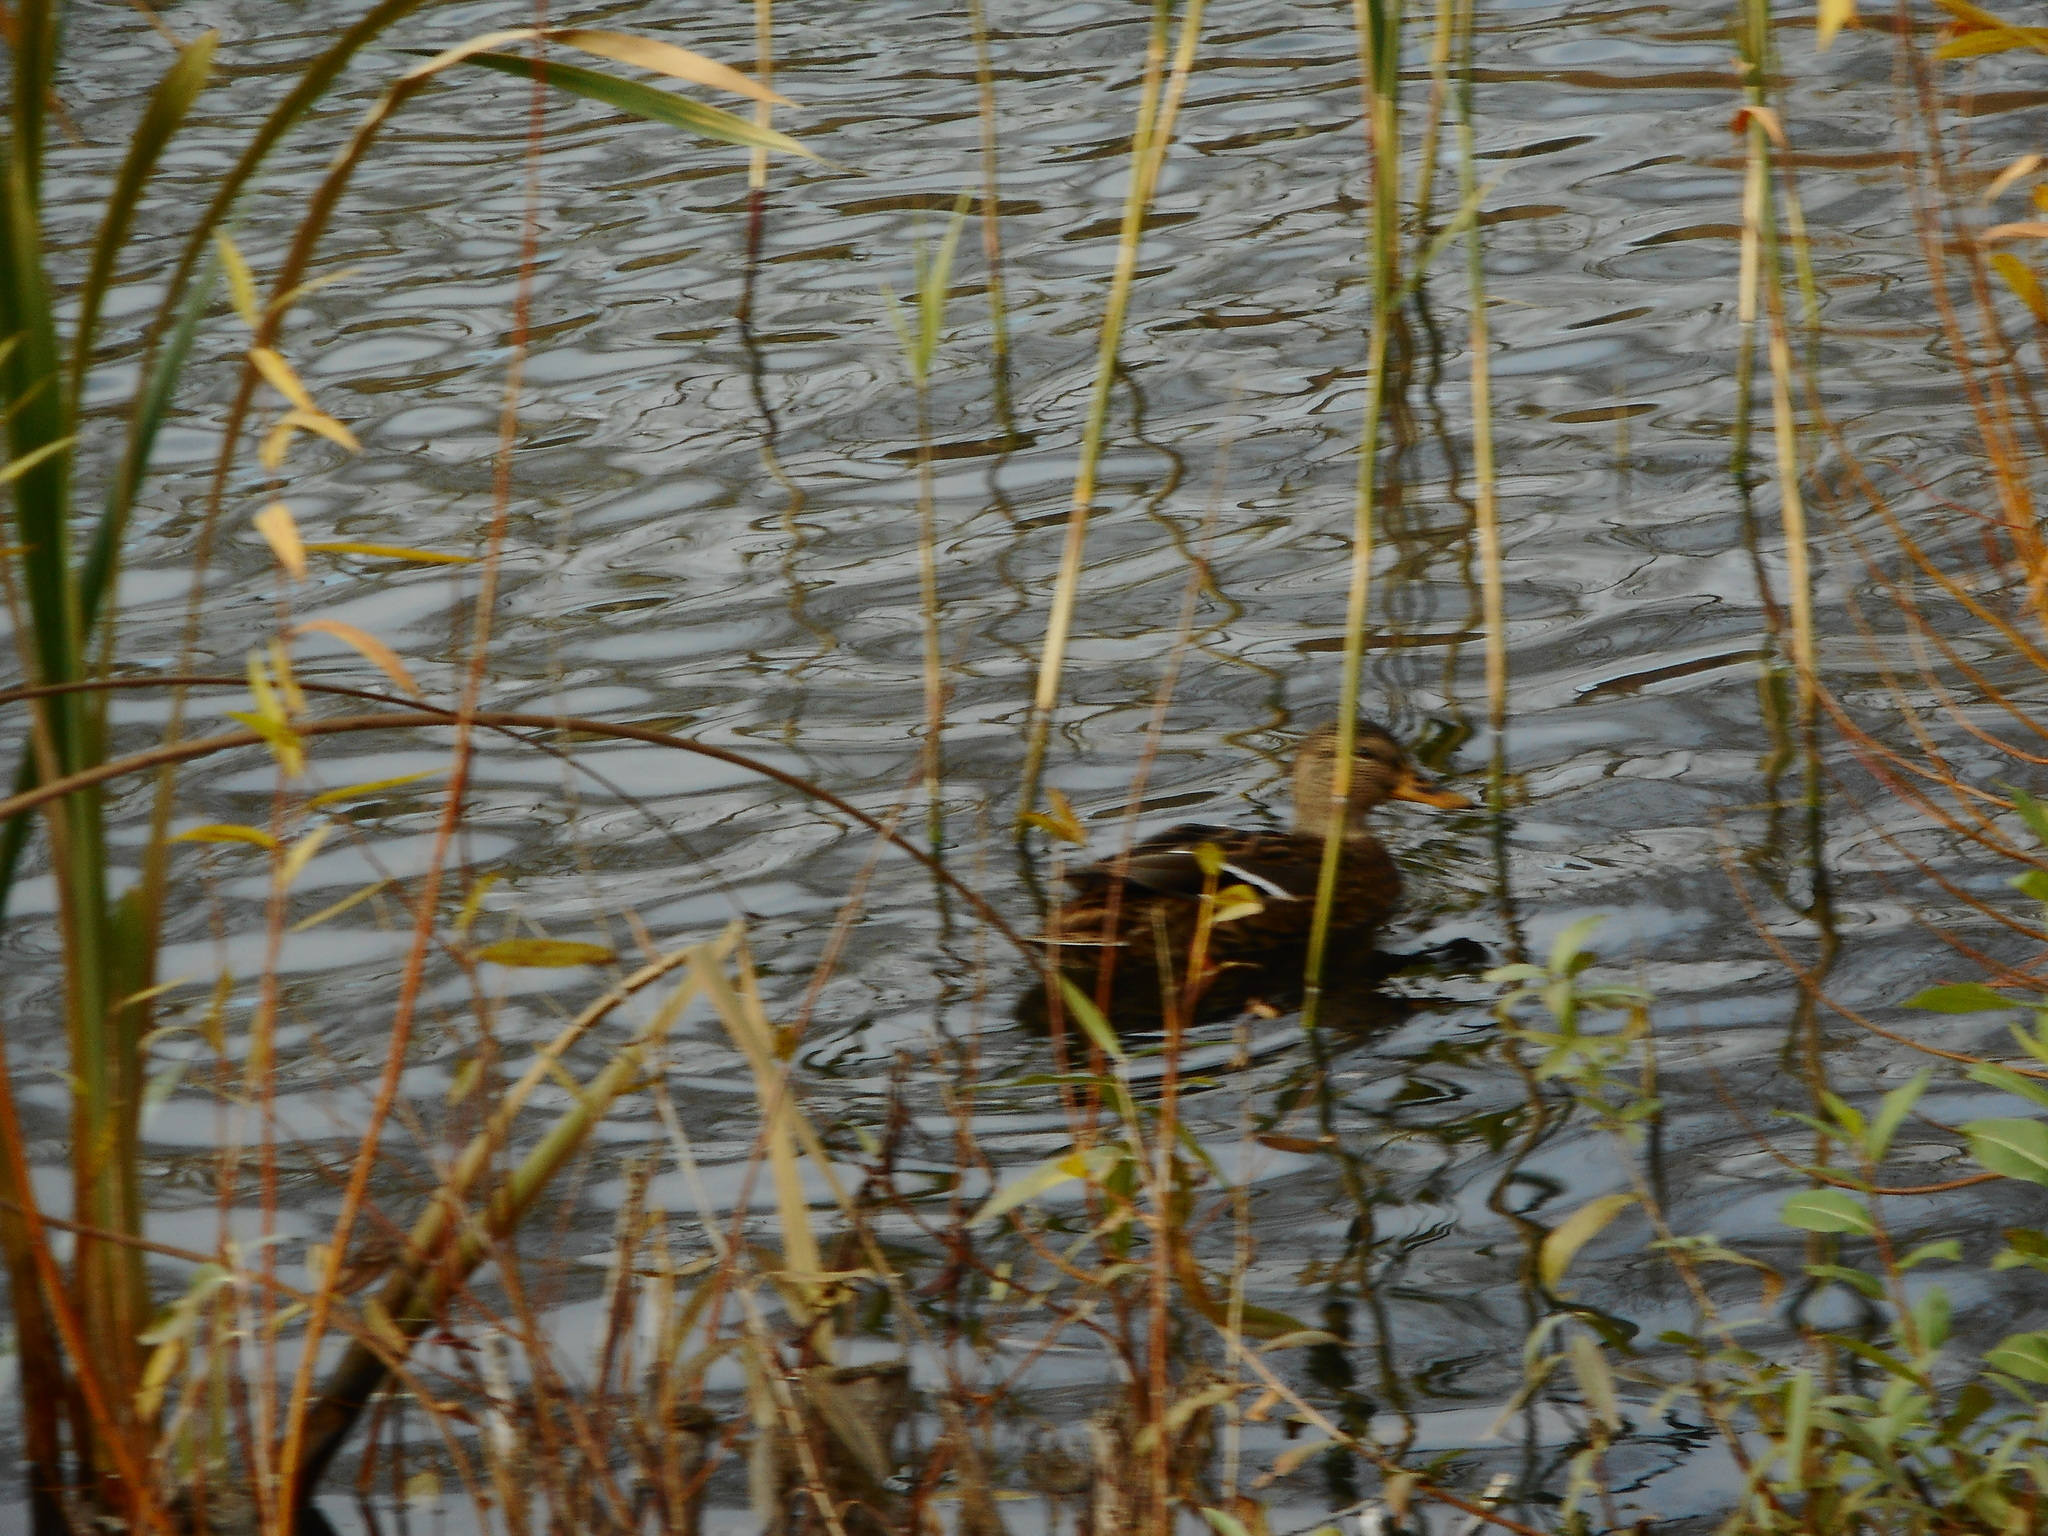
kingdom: Animalia
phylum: Chordata
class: Aves
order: Anseriformes
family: Anatidae
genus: Anas
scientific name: Anas platyrhynchos
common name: Mallard
